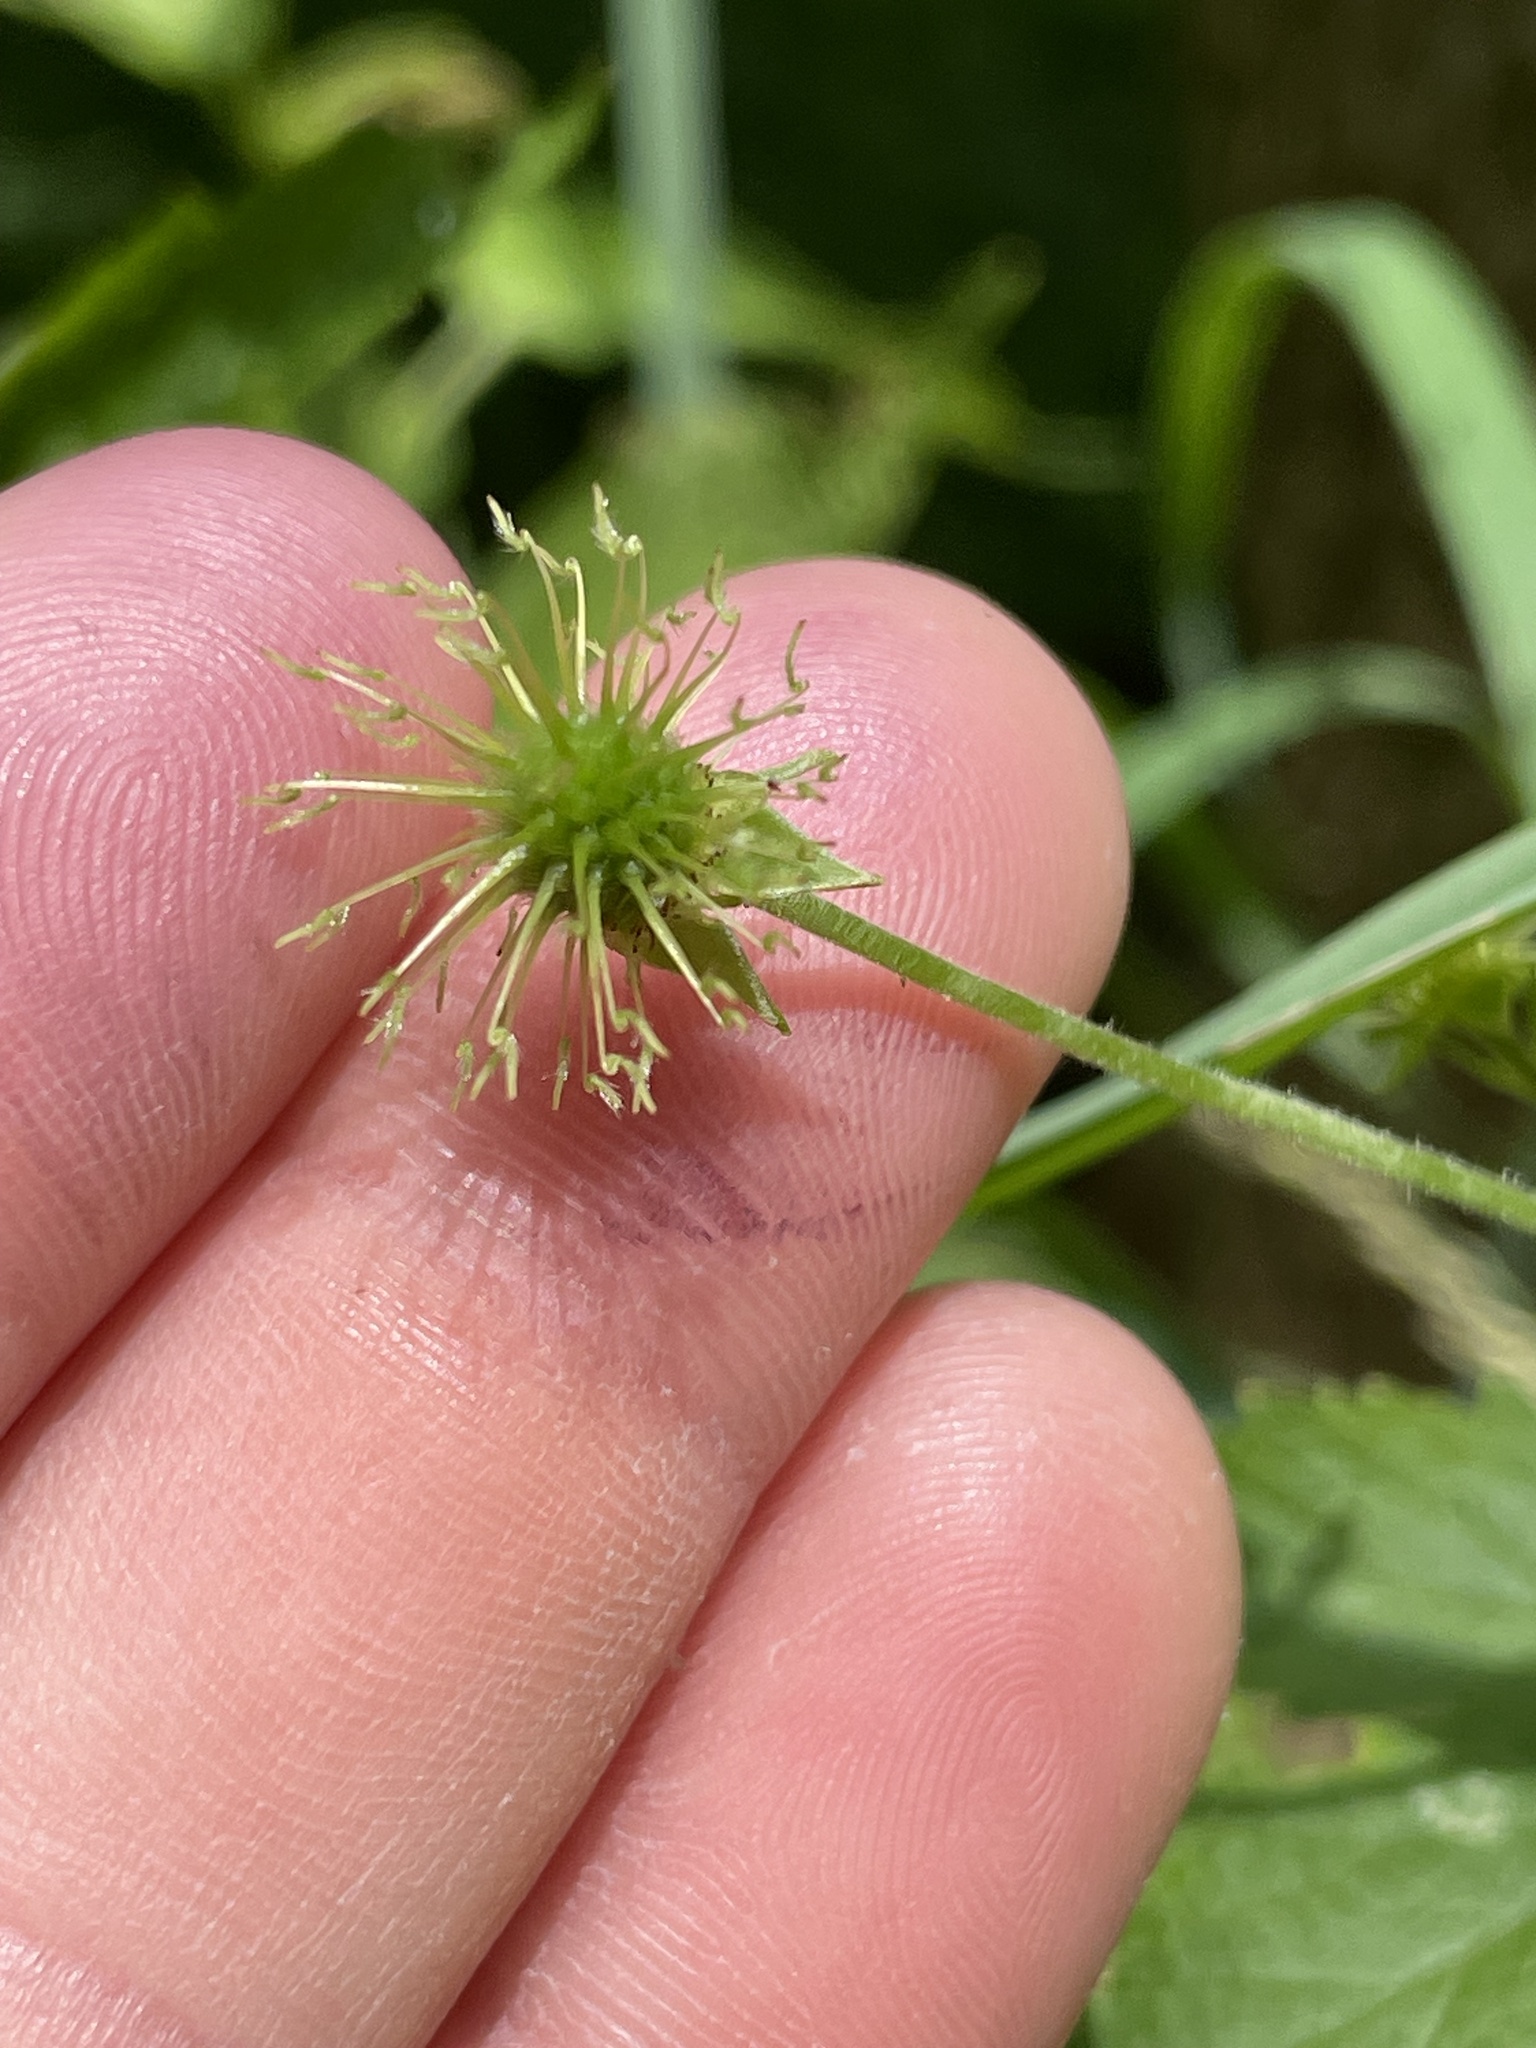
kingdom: Plantae
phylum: Tracheophyta
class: Magnoliopsida
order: Rosales
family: Rosaceae
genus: Geum
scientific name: Geum canadense
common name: White avens
